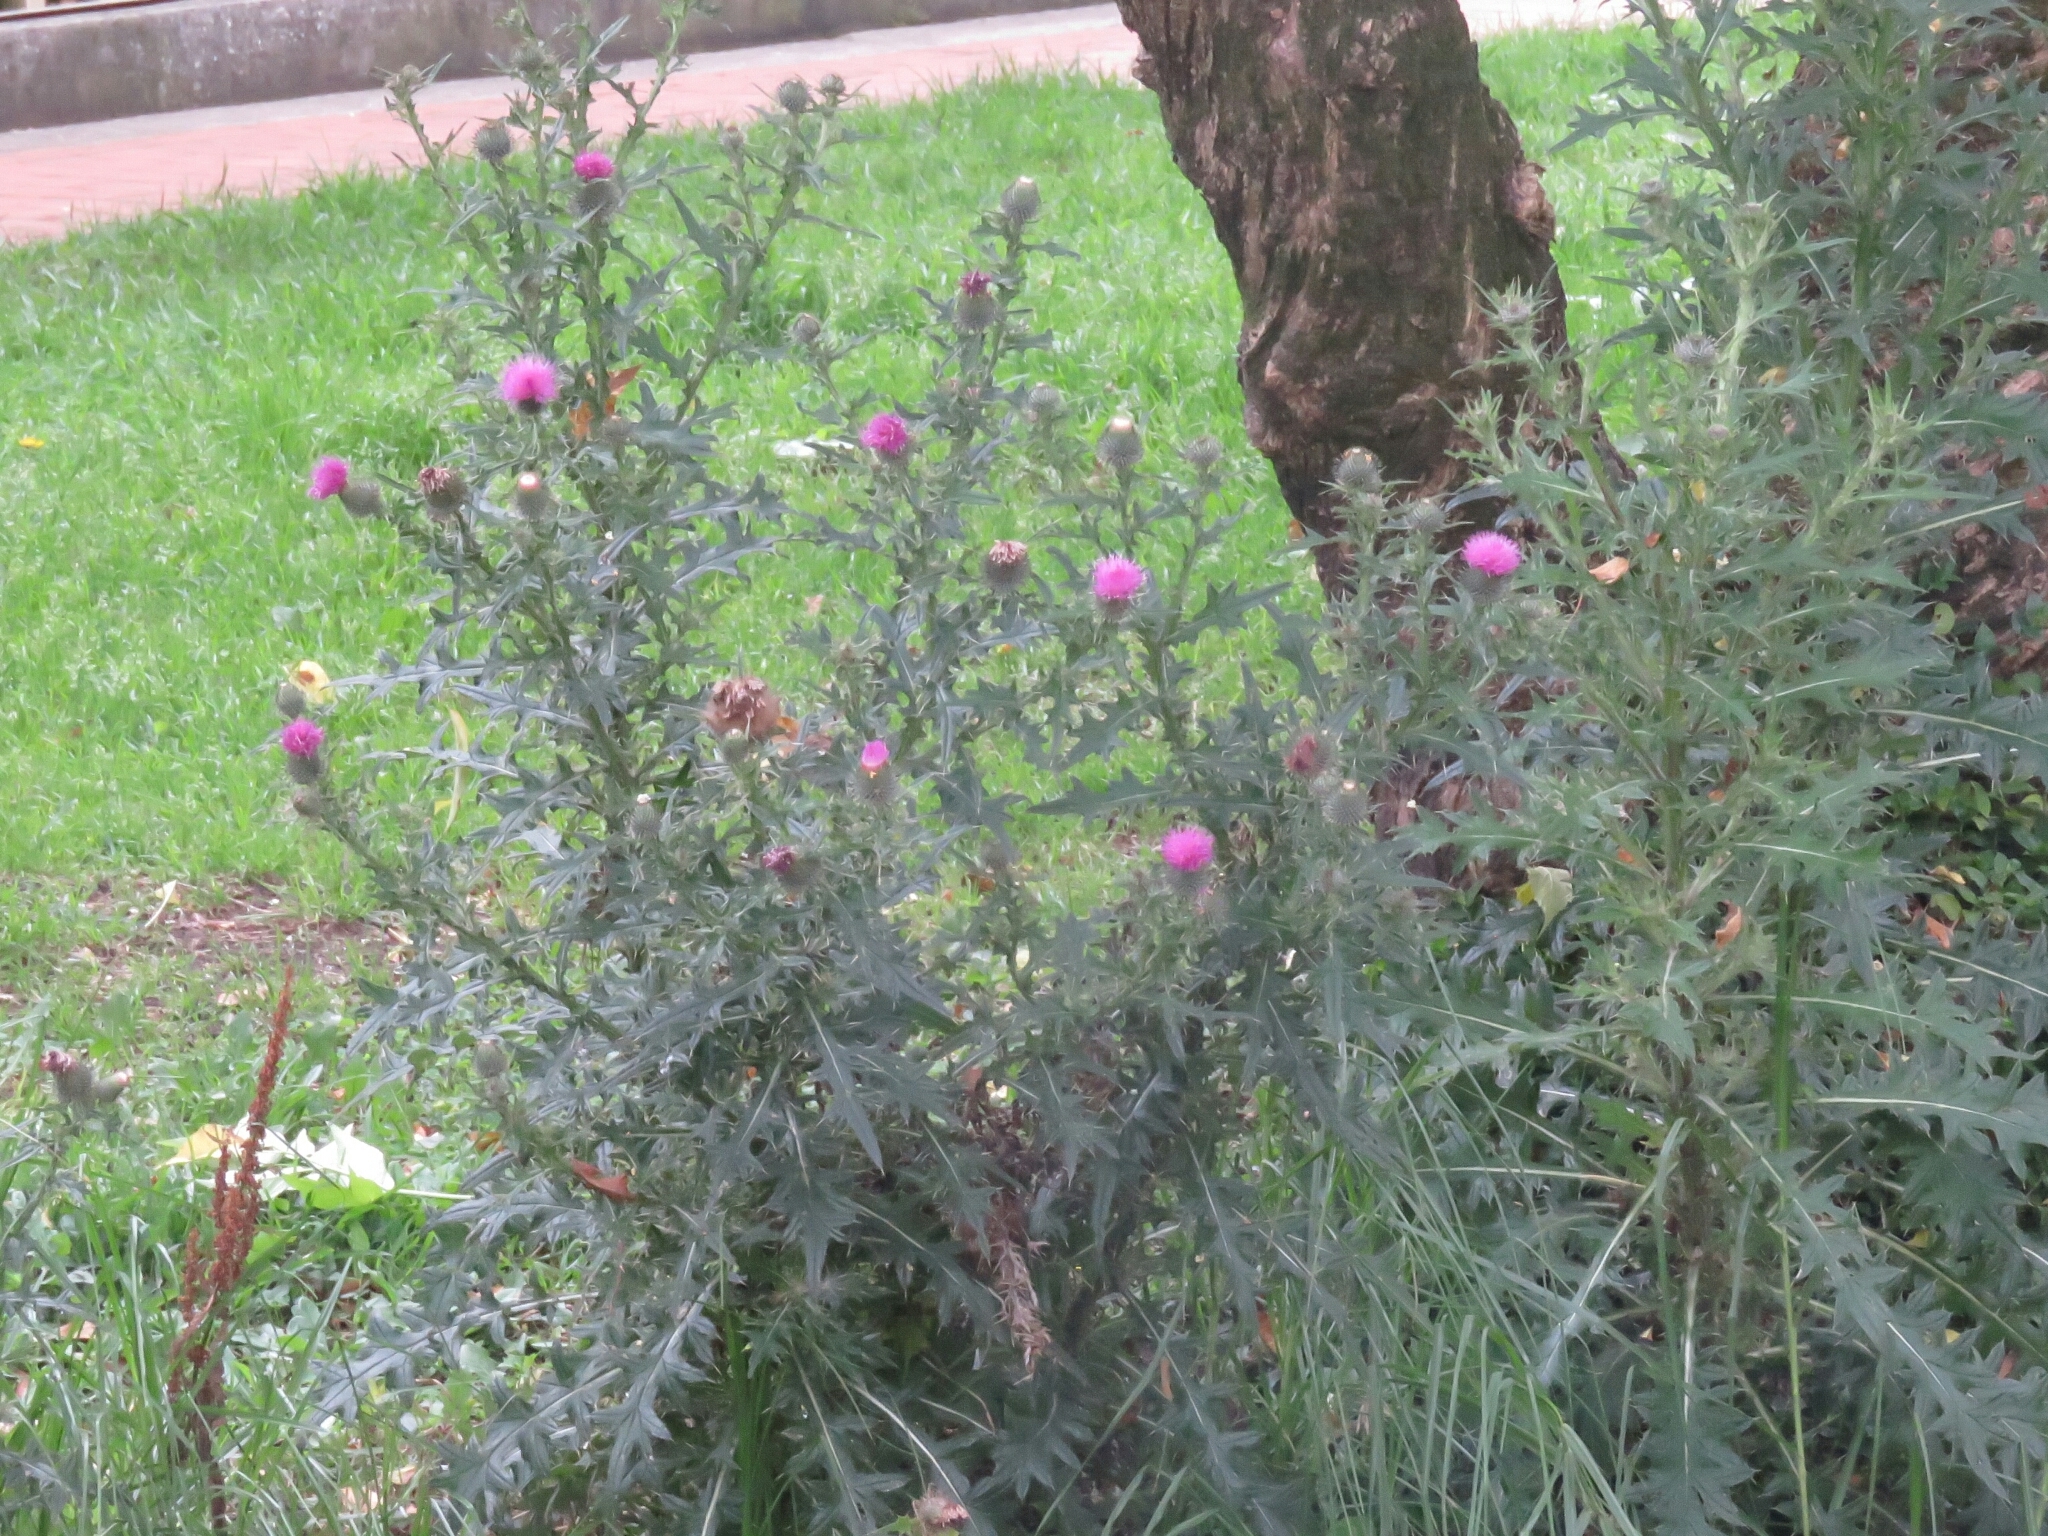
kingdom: Plantae
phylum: Tracheophyta
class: Magnoliopsida
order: Asterales
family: Asteraceae
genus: Cirsium
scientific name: Cirsium vulgare
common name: Bull thistle
